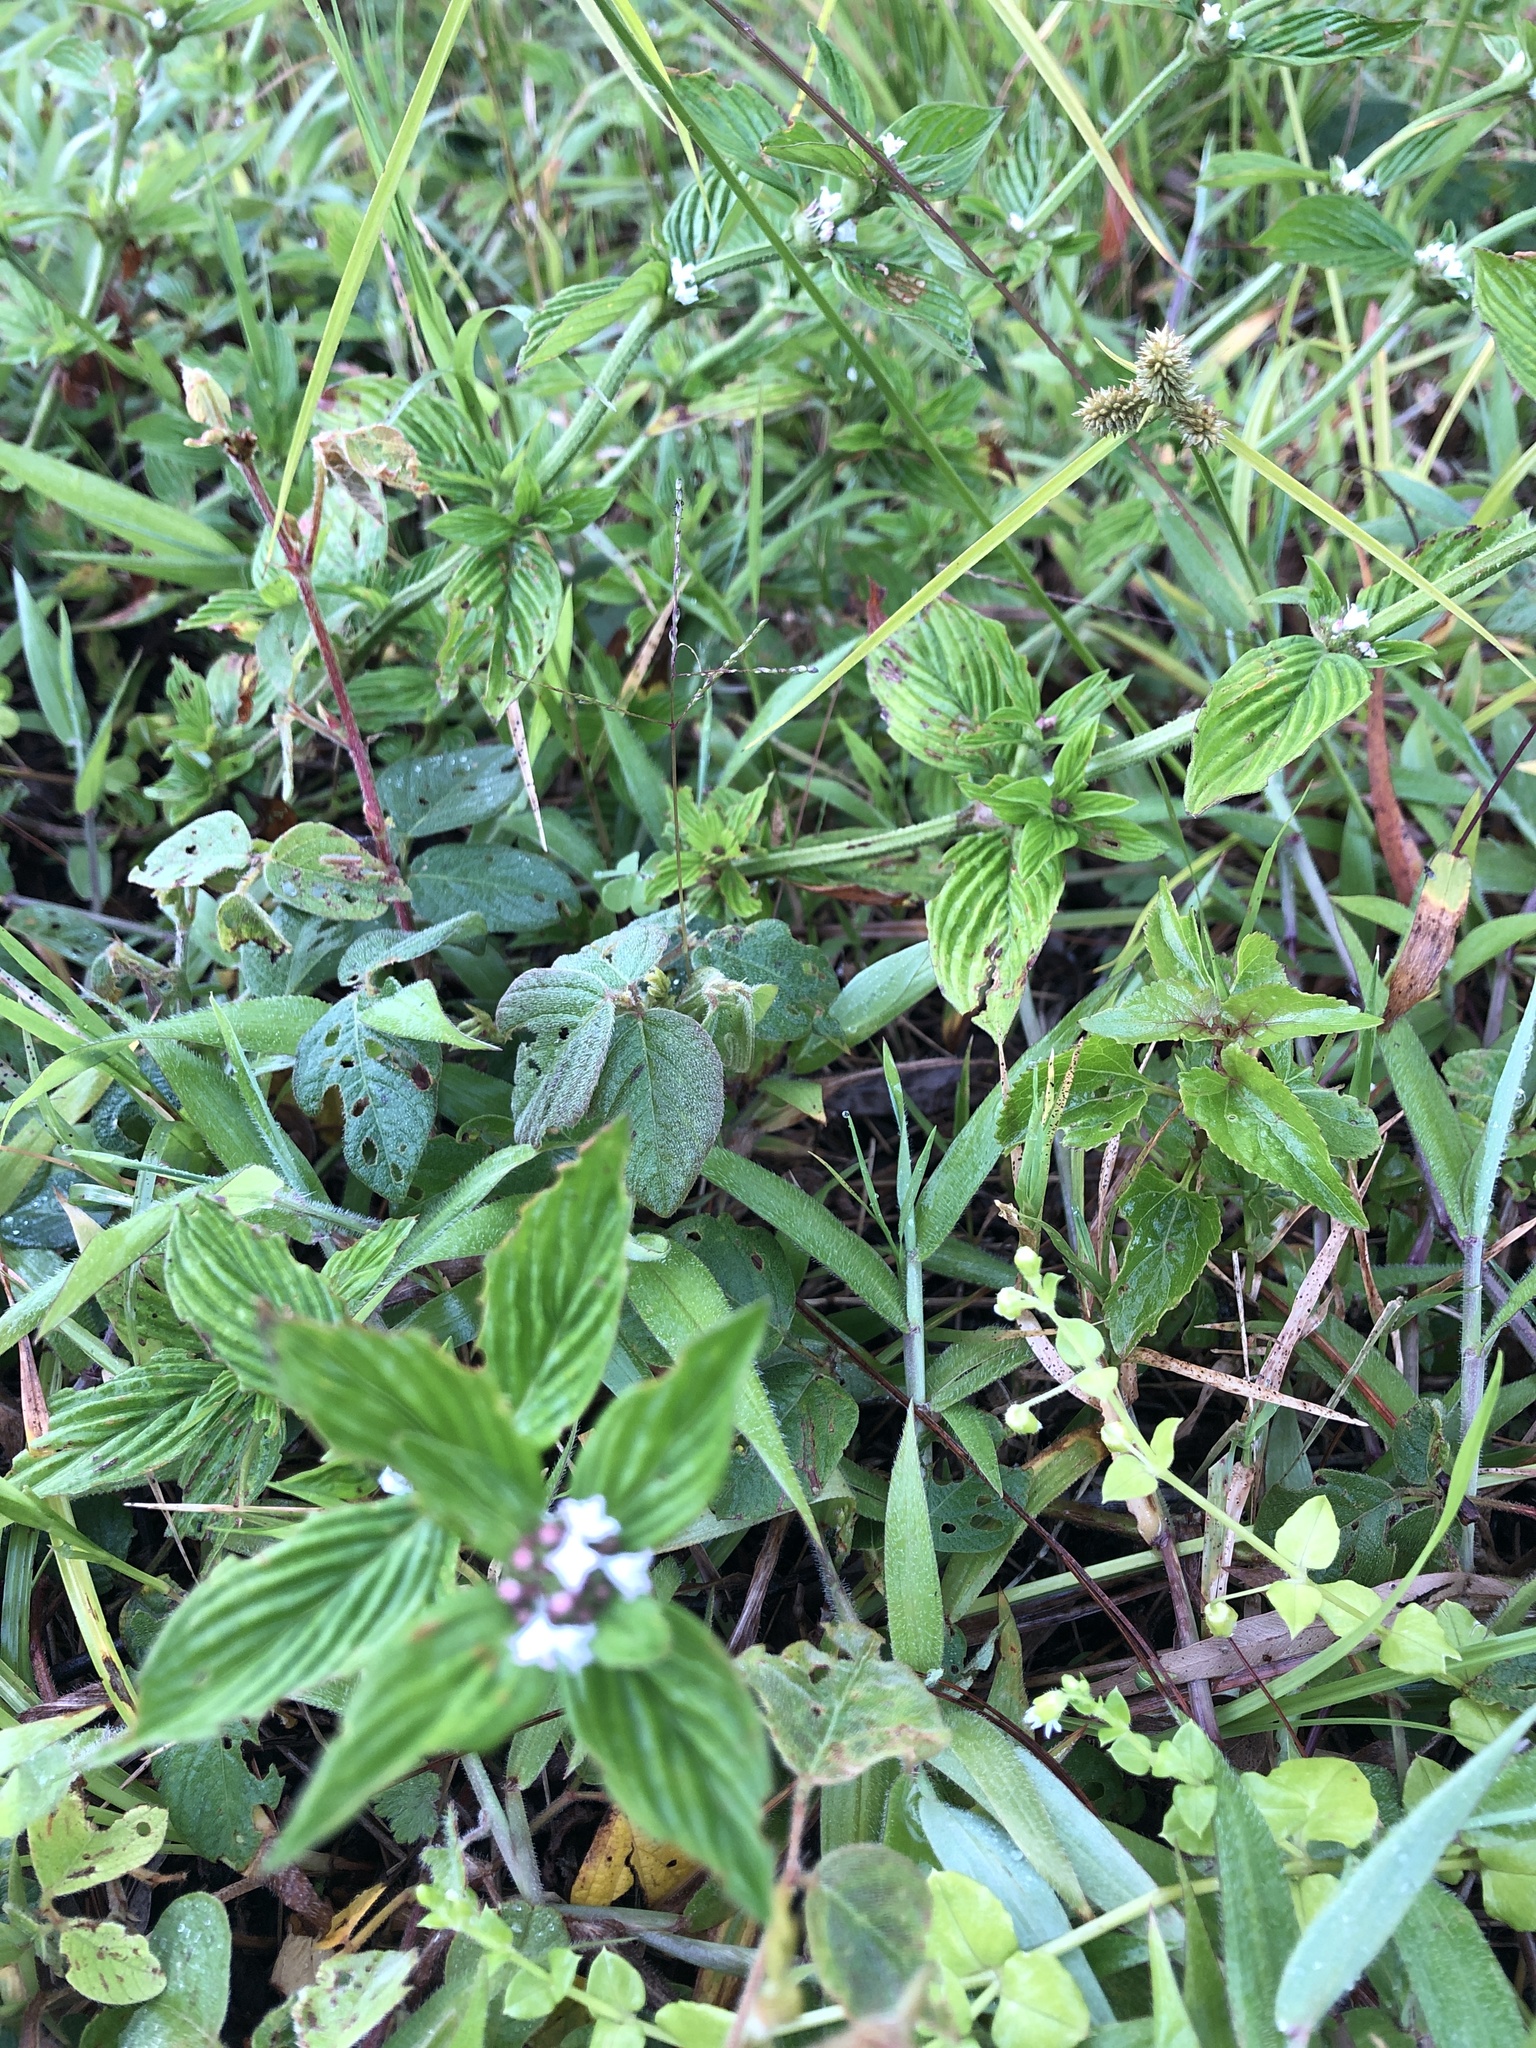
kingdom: Plantae
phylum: Tracheophyta
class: Magnoliopsida
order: Gentianales
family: Rubiaceae
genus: Spermacoce
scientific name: Spermacoce remota
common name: Woodland false buttonweed
